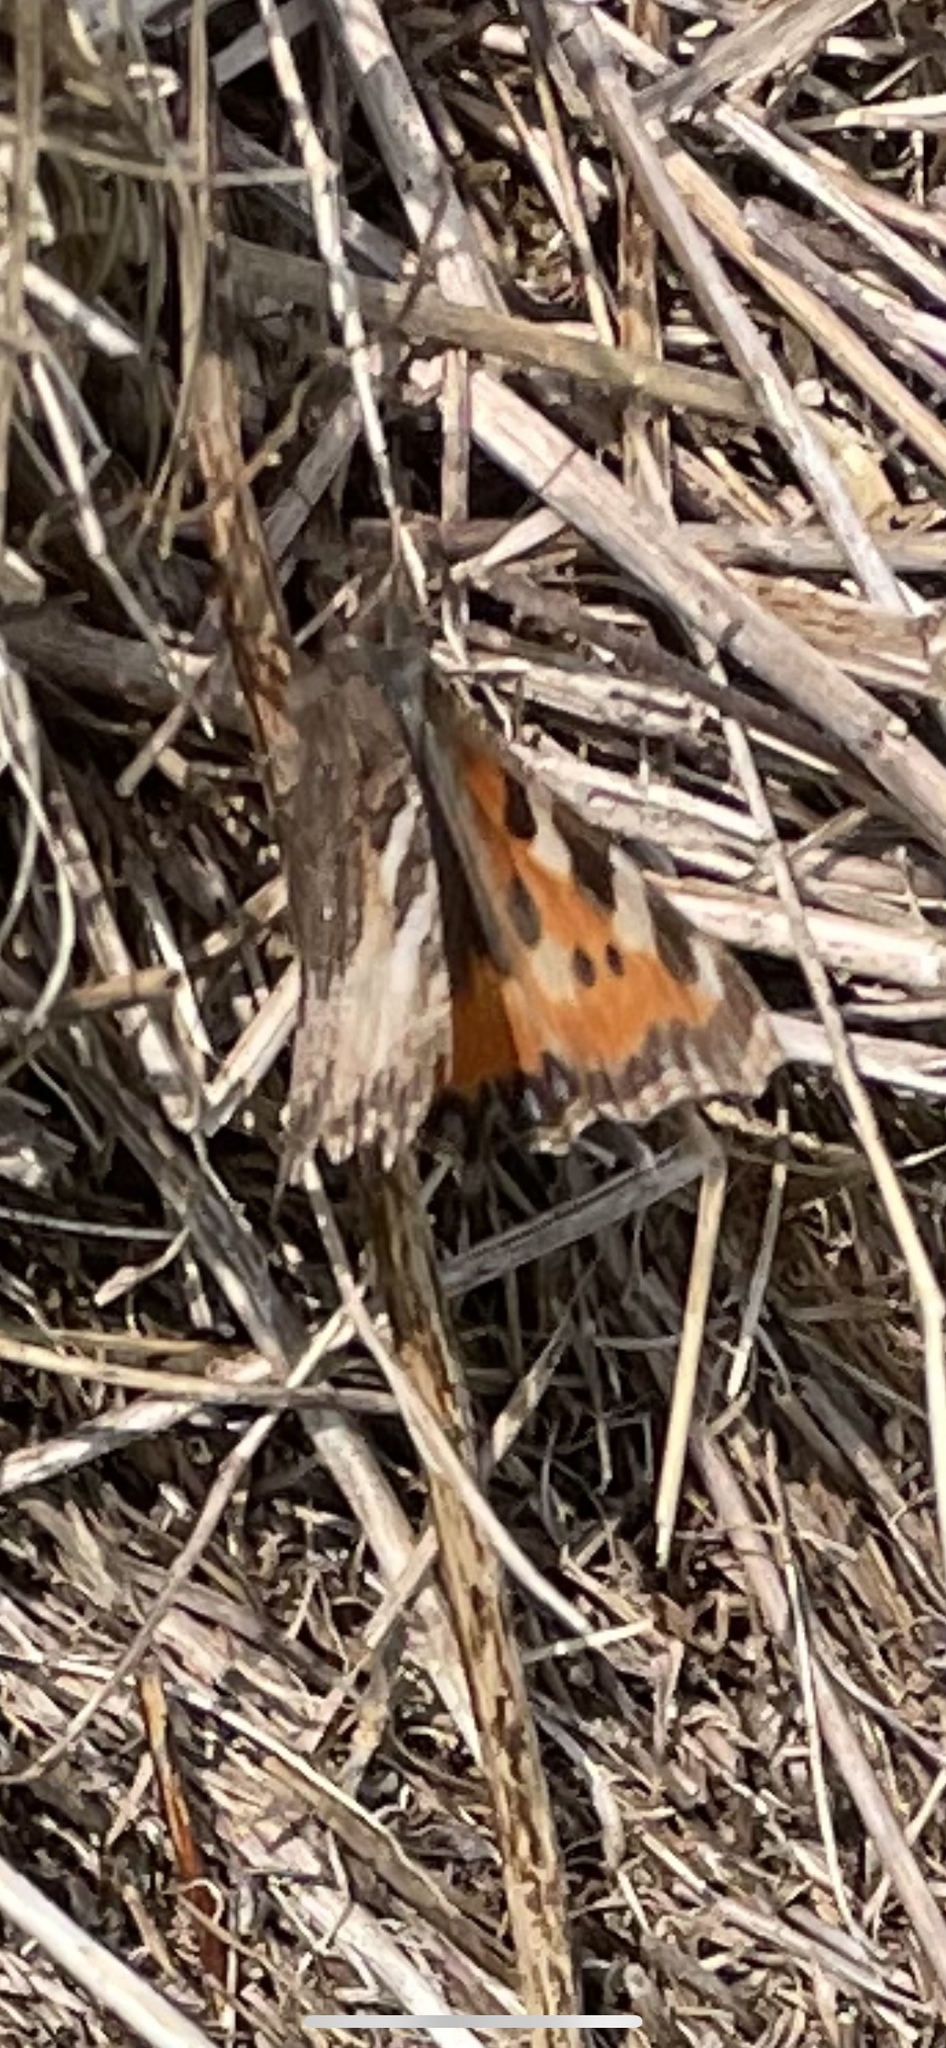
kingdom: Animalia
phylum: Arthropoda
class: Insecta
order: Lepidoptera
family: Nymphalidae
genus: Aglais
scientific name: Aglais urticae
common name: Small tortoiseshell
